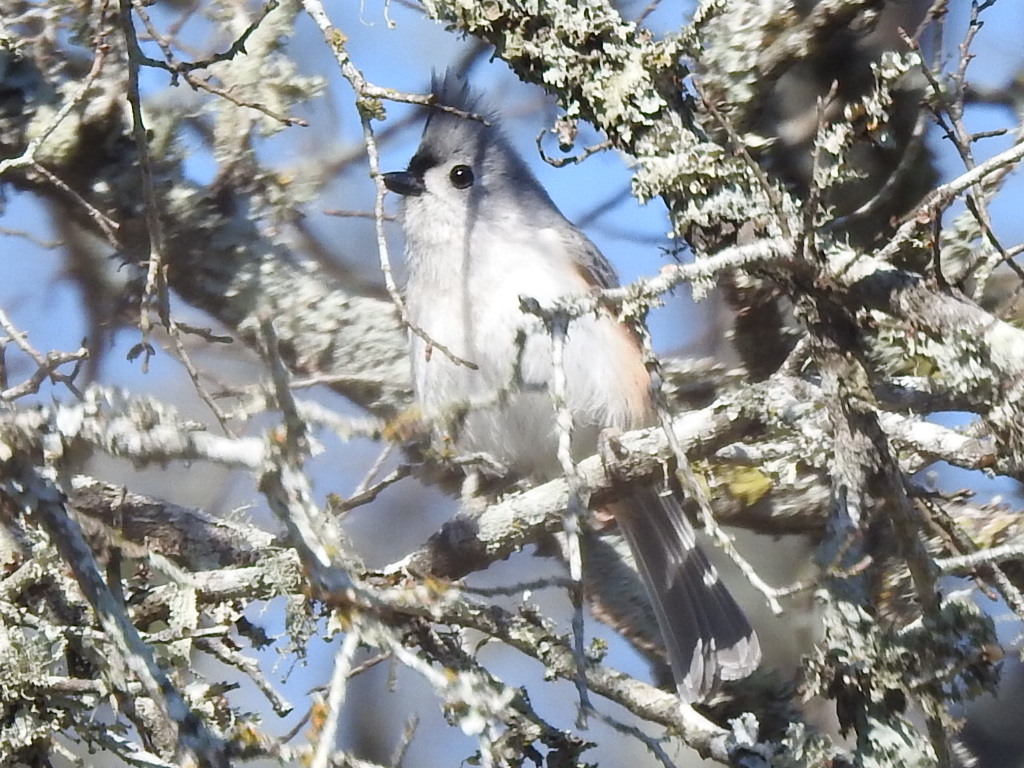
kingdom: Animalia
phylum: Chordata
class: Aves
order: Passeriformes
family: Paridae
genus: Baeolophus
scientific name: Baeolophus bicolor
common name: Tufted titmouse
